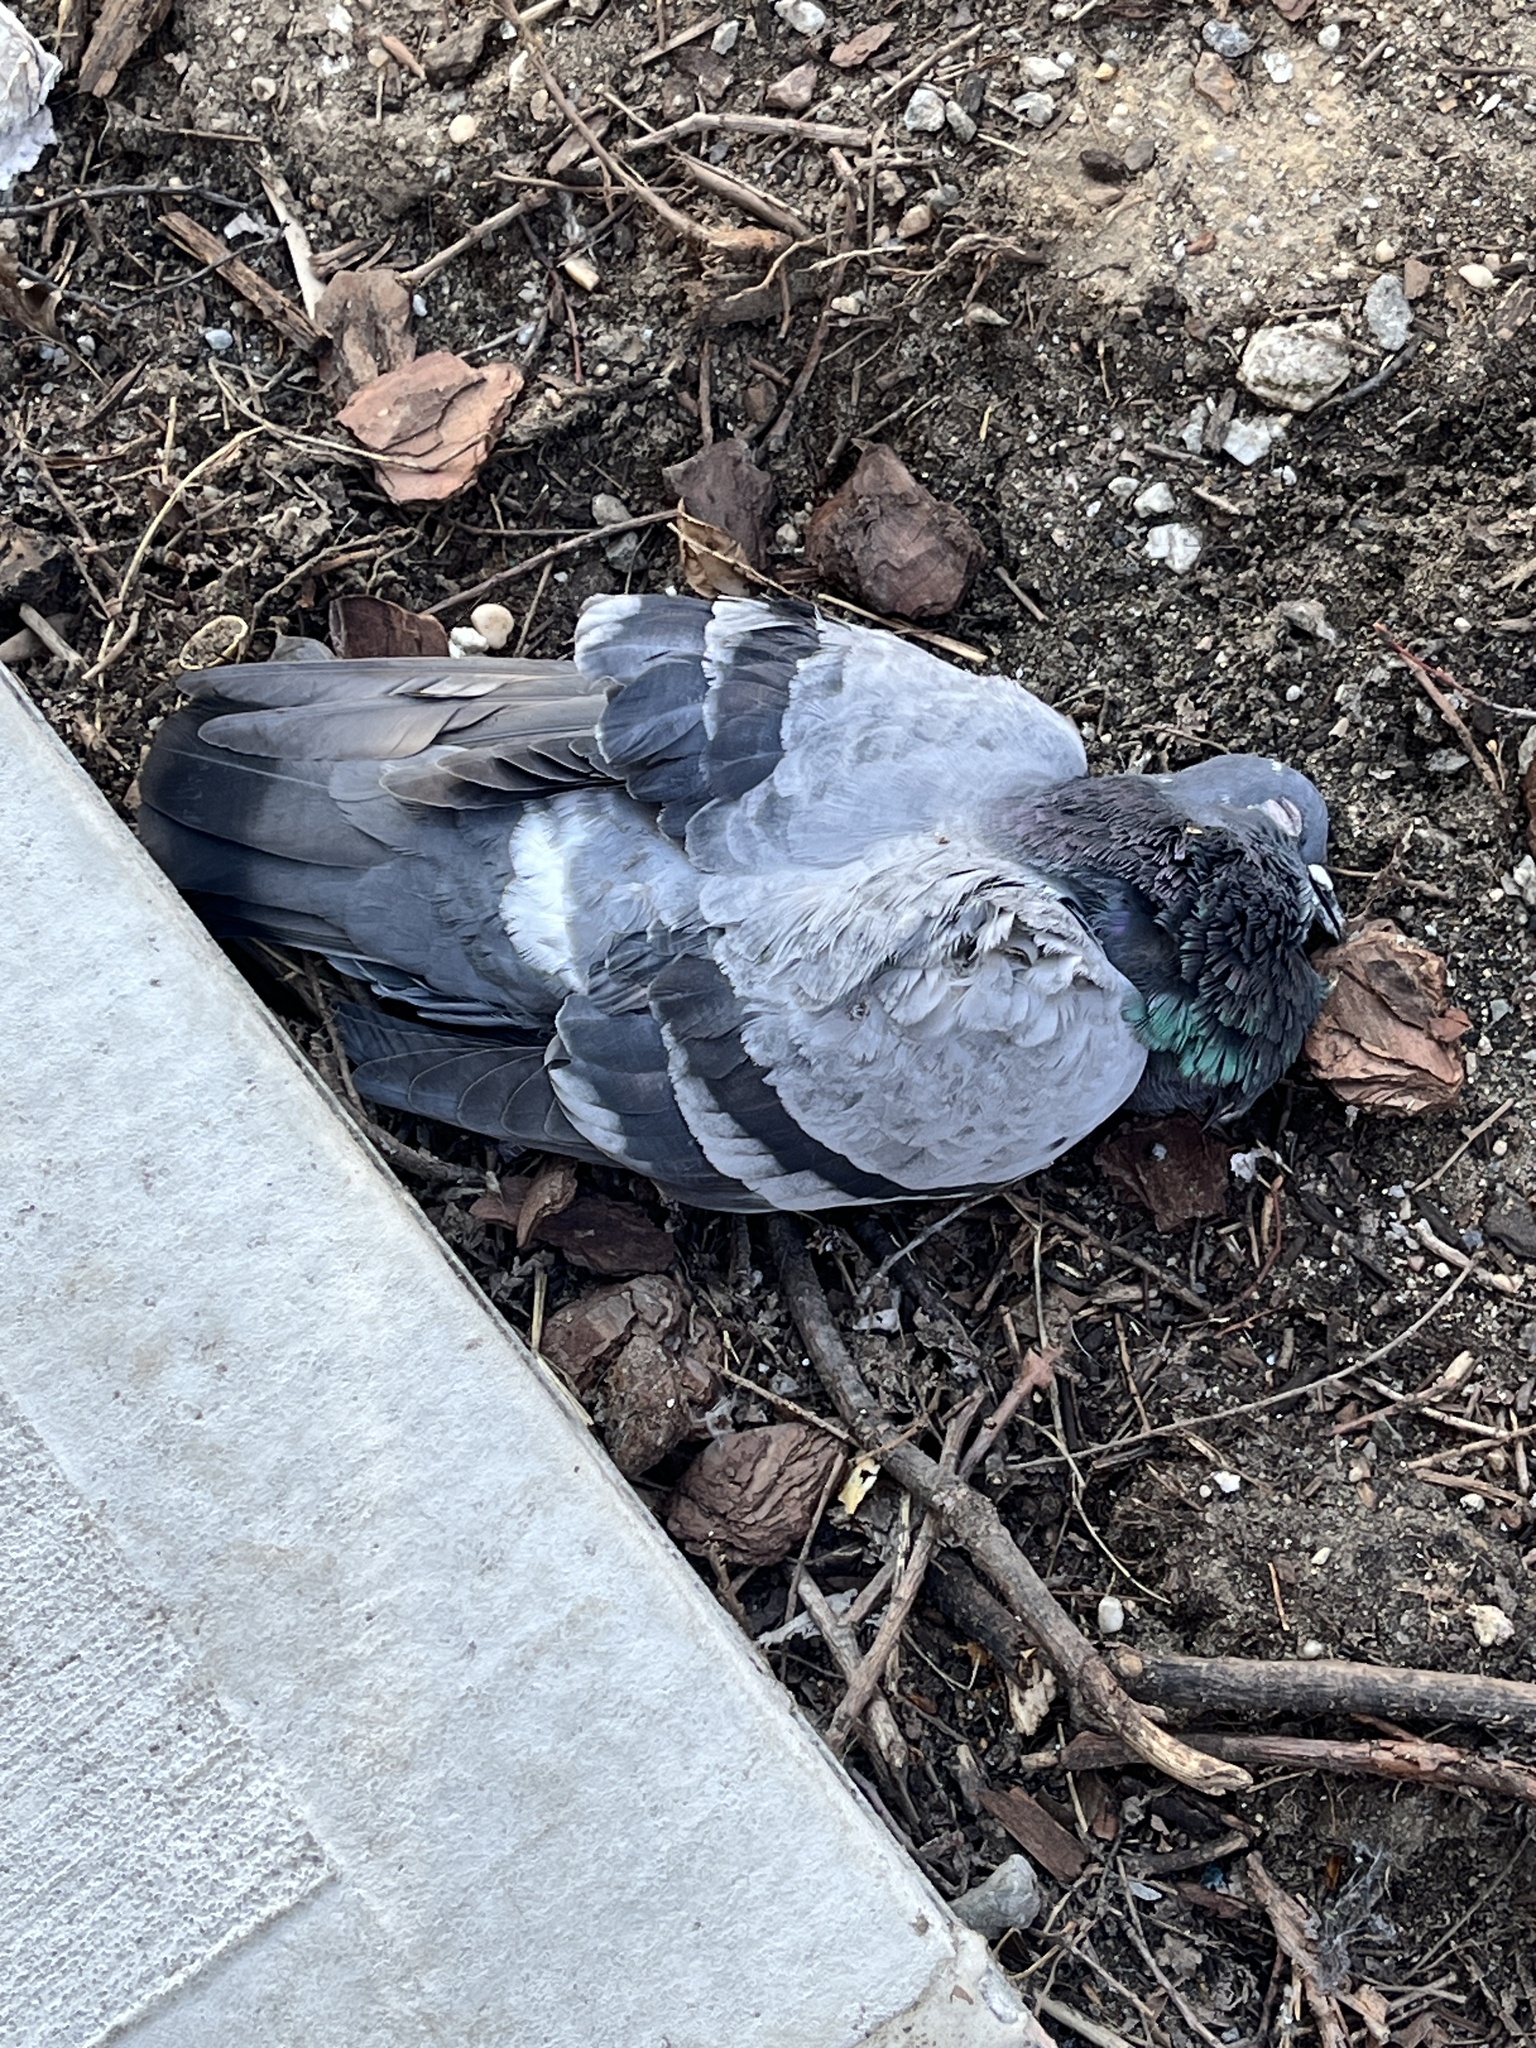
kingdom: Animalia
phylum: Chordata
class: Aves
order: Columbiformes
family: Columbidae
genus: Columba
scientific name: Columba livia
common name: Rock pigeon
